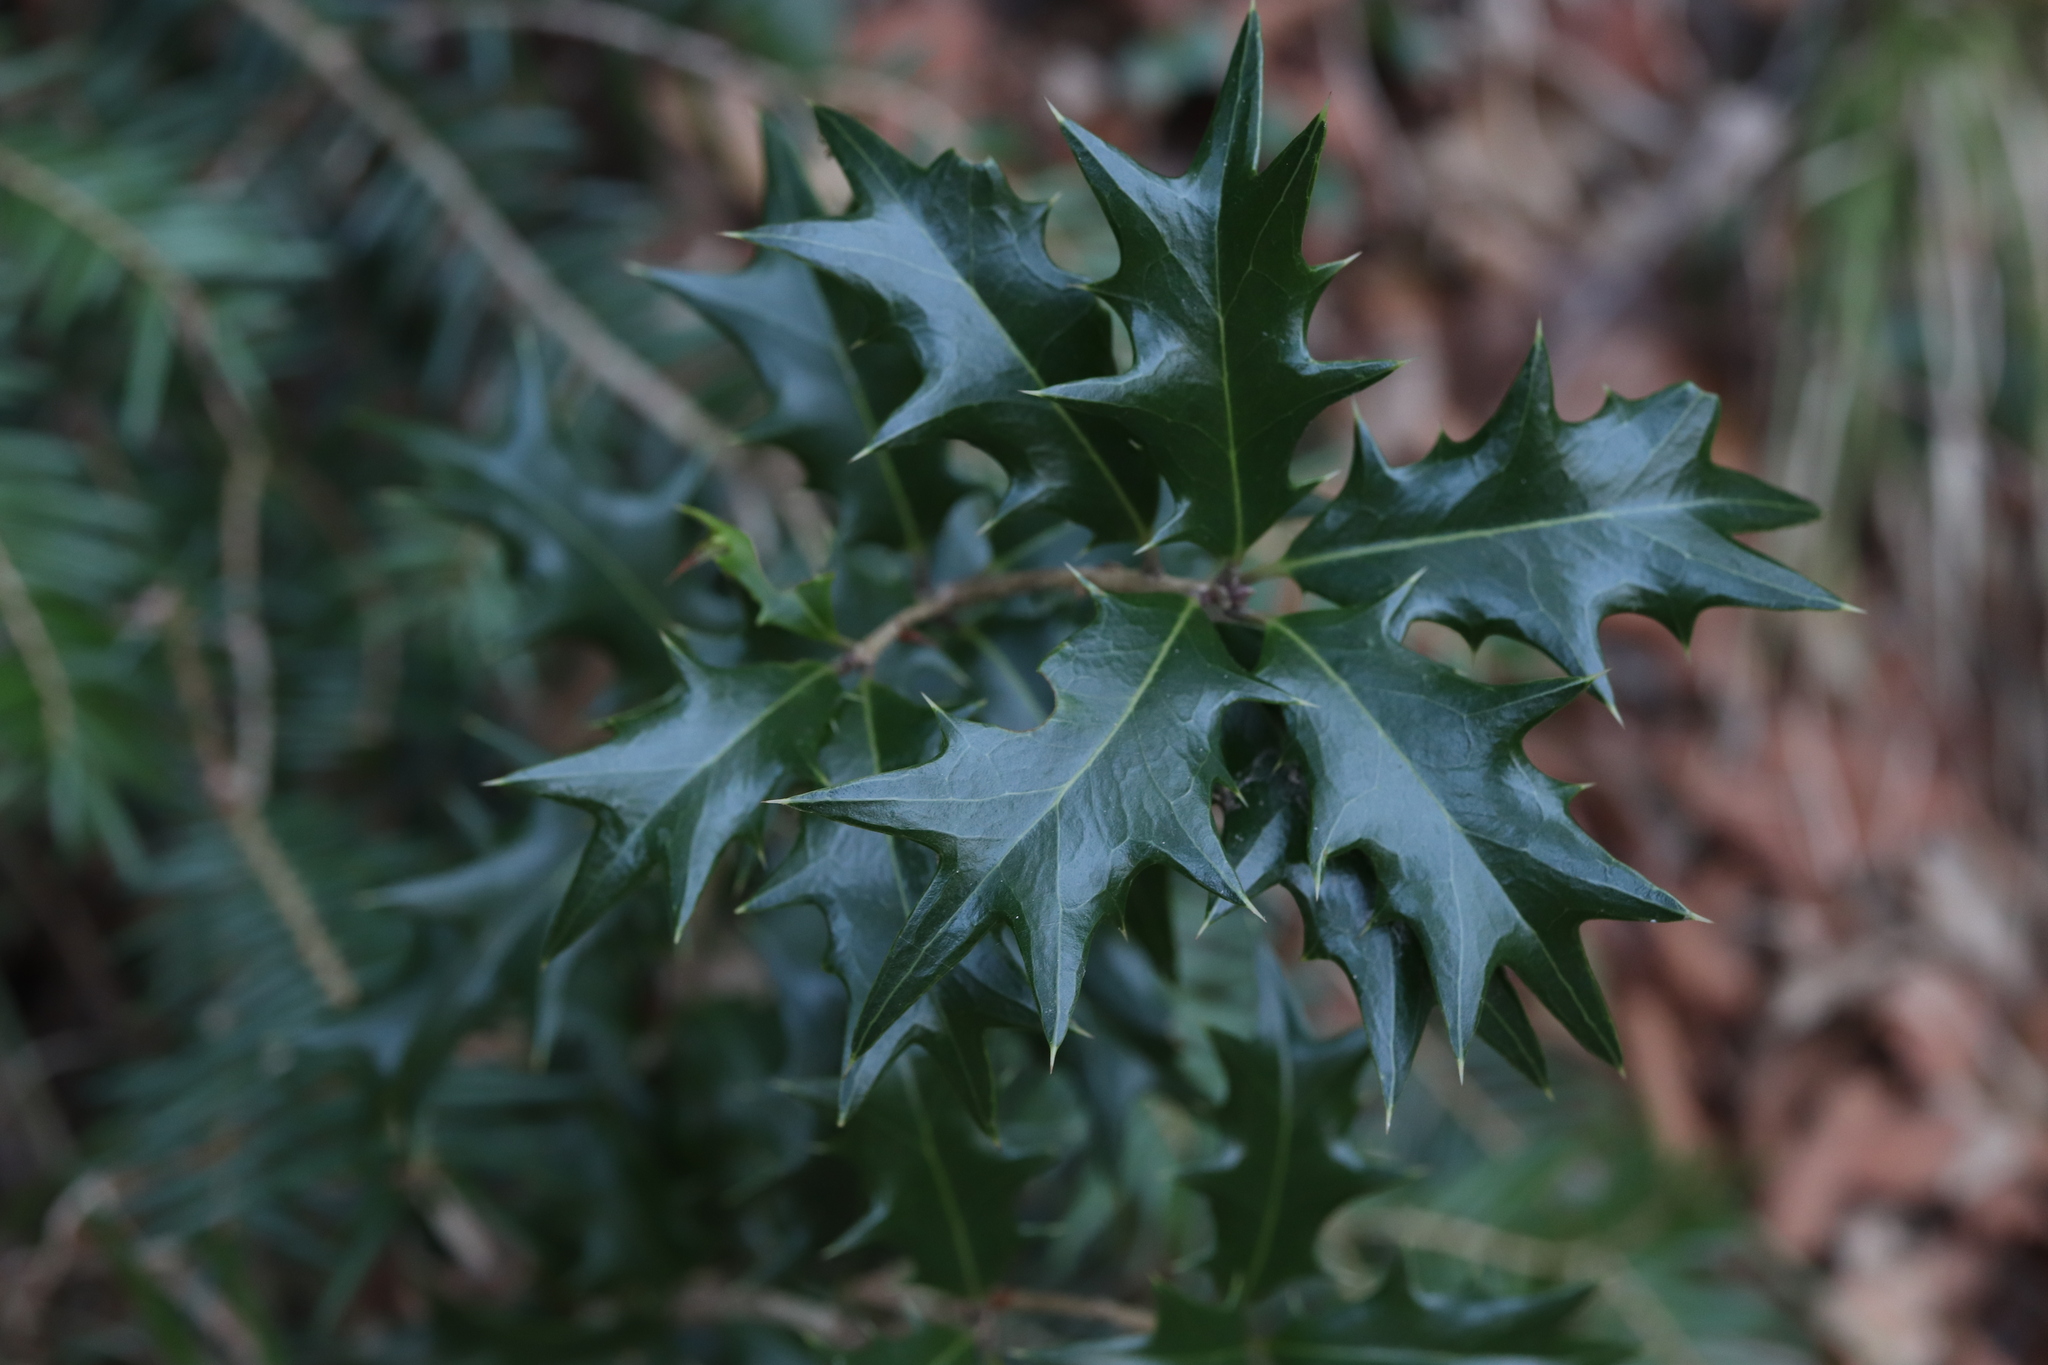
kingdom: Plantae
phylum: Tracheophyta
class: Magnoliopsida
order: Lamiales
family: Oleaceae
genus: Osmanthus
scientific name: Osmanthus heterophyllus
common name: Holly osmanthus
